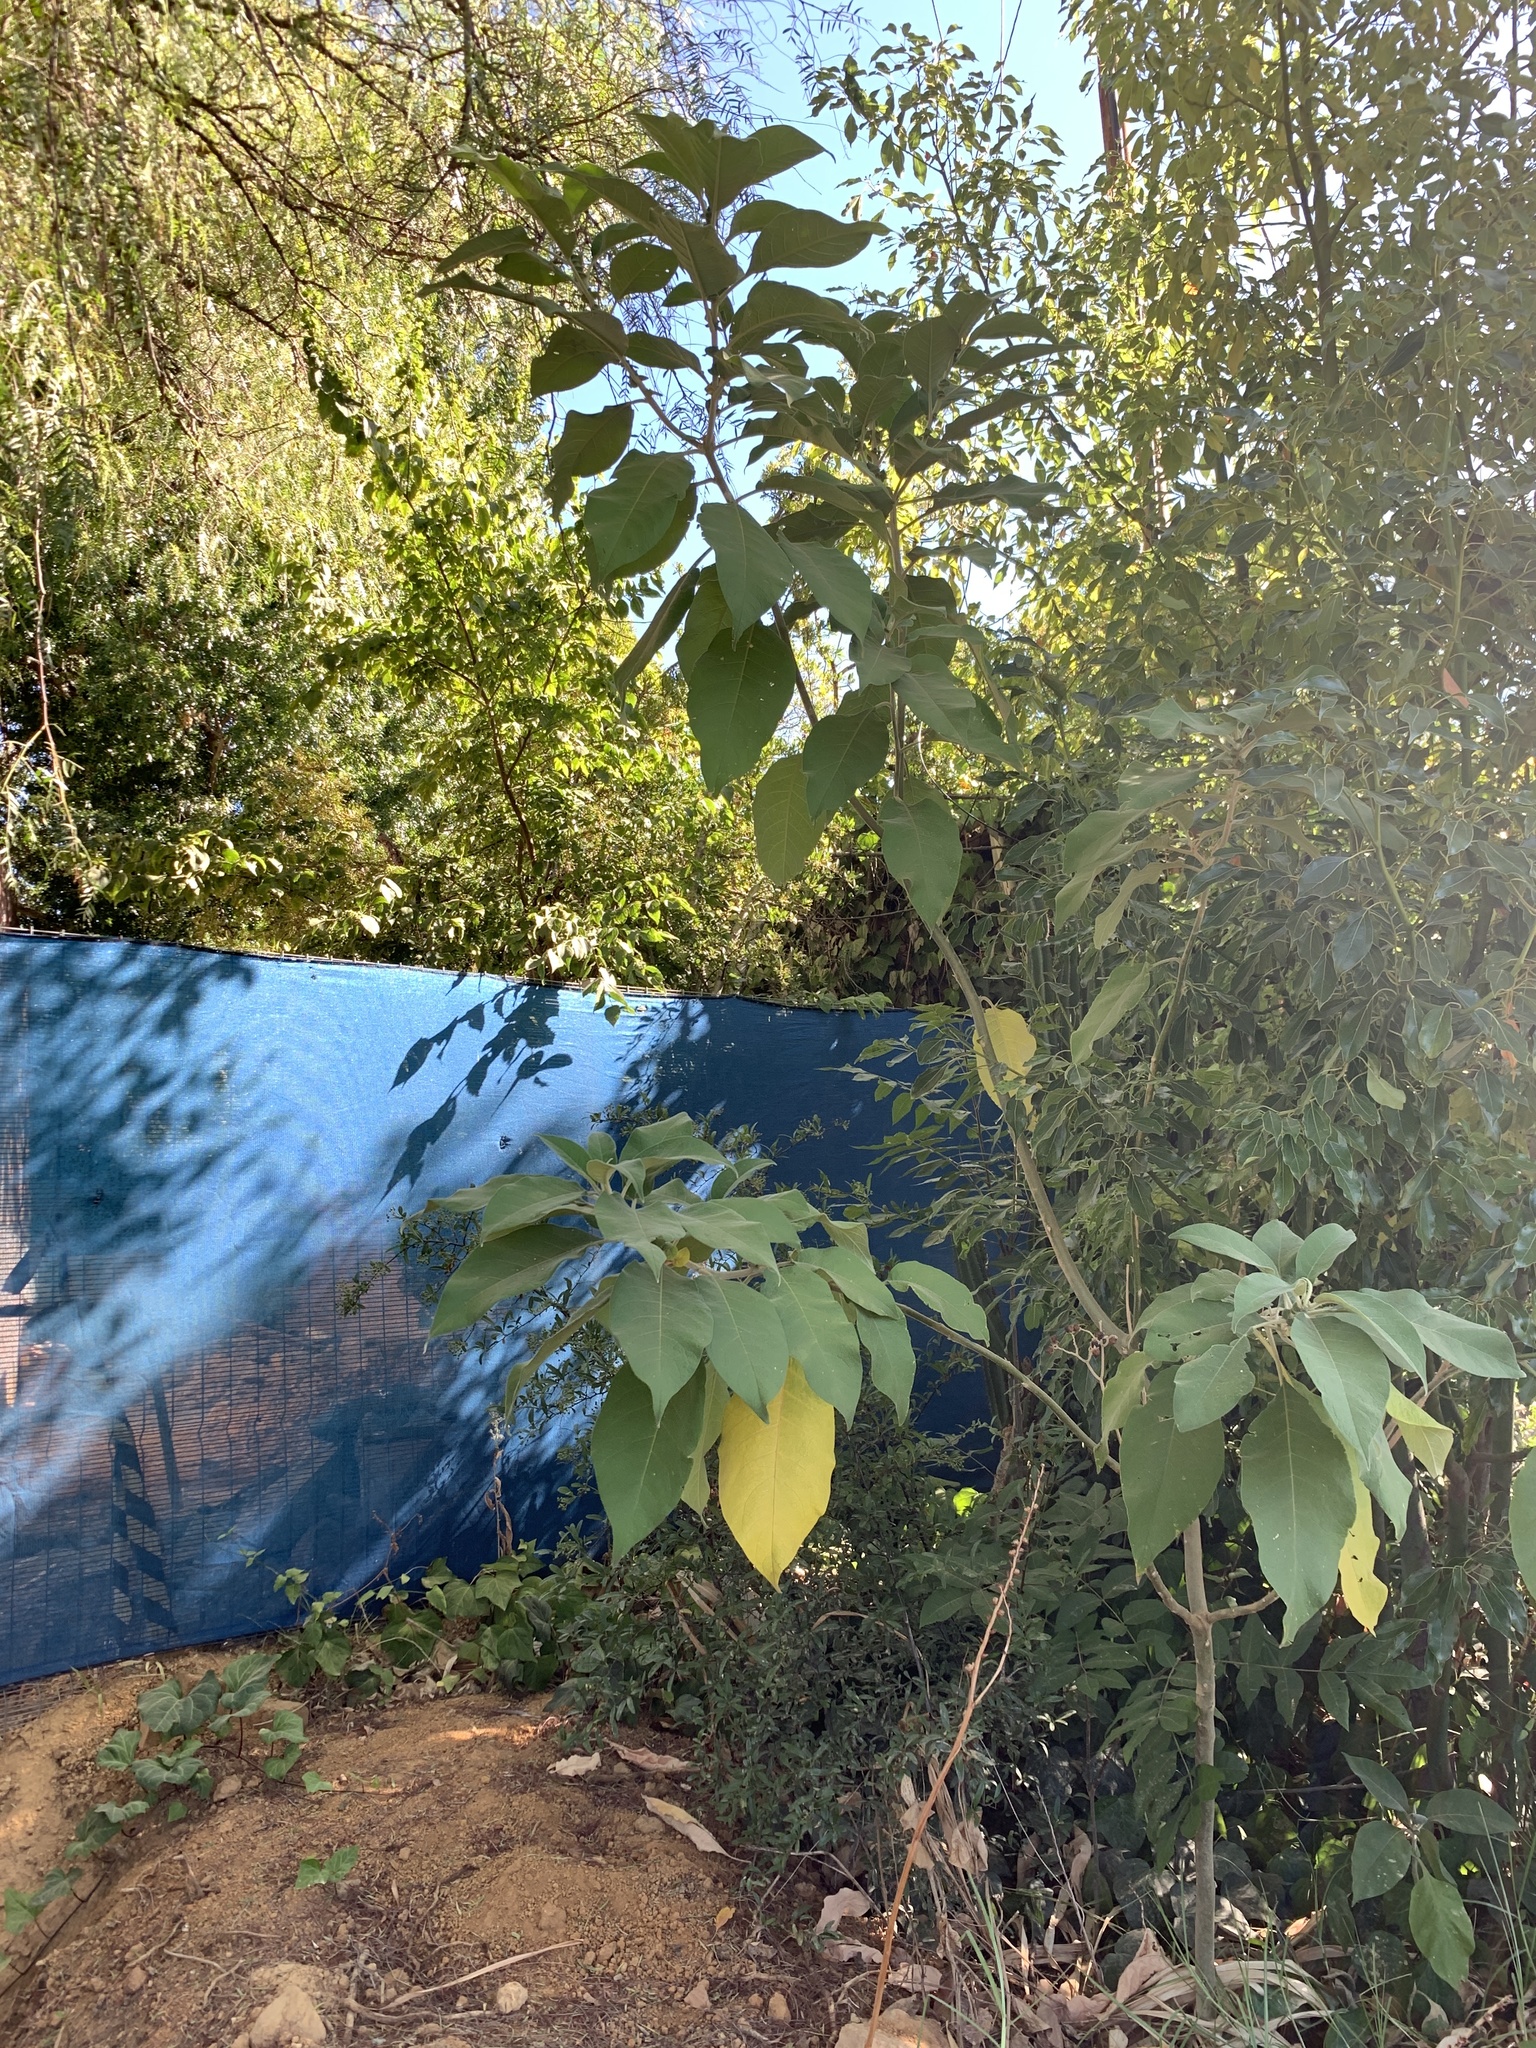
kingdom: Plantae
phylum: Tracheophyta
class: Magnoliopsida
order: Solanales
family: Solanaceae
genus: Solanum
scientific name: Solanum mauritianum
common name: Earleaf nightshade
